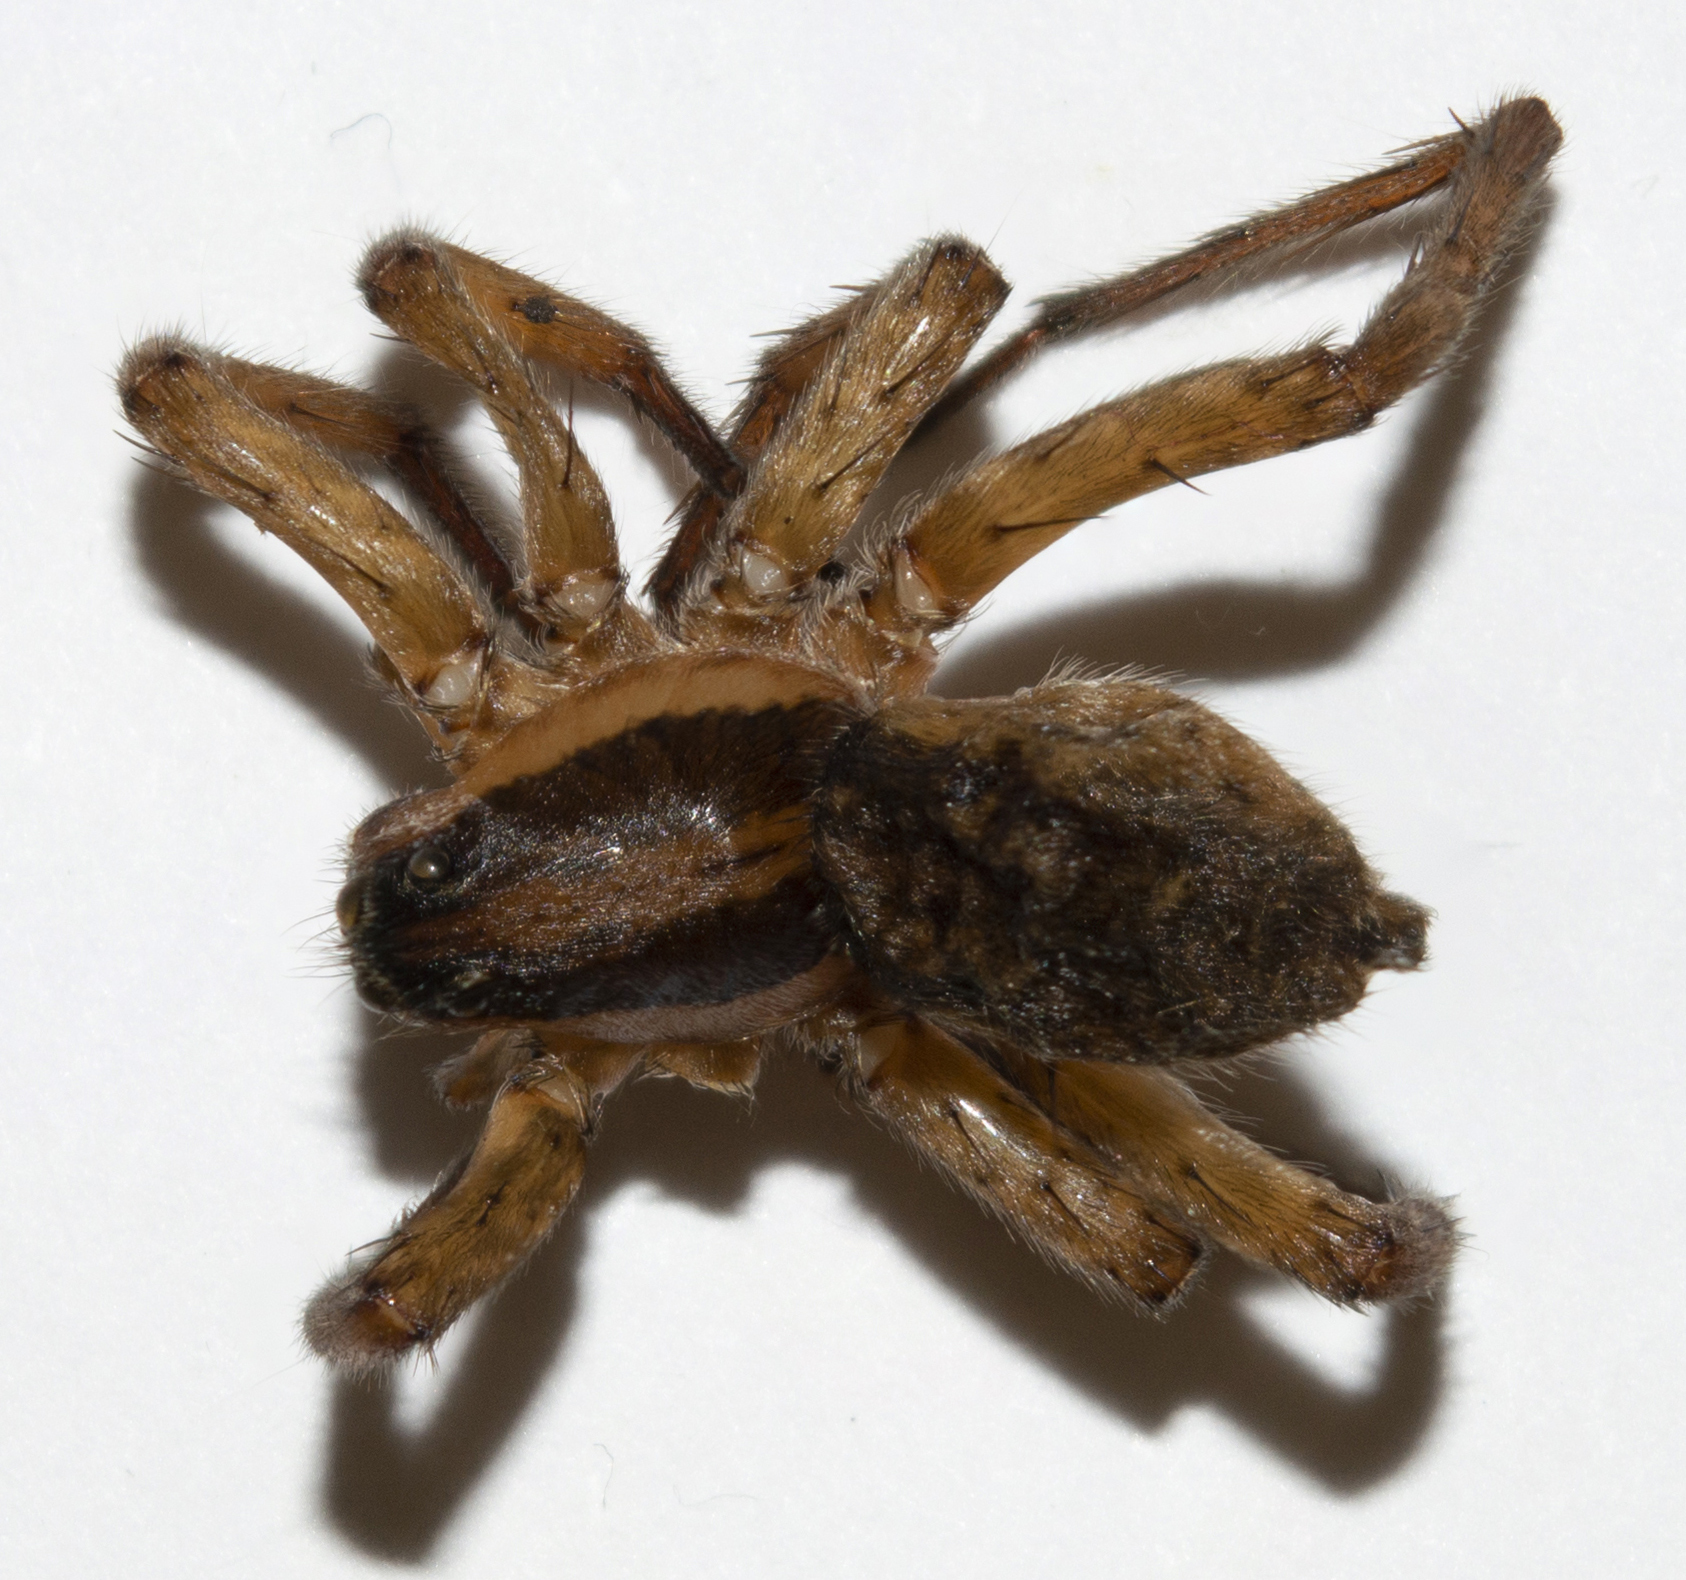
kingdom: Animalia
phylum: Arthropoda
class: Arachnida
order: Araneae
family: Lycosidae
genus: Hogna
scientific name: Hogna graeca
